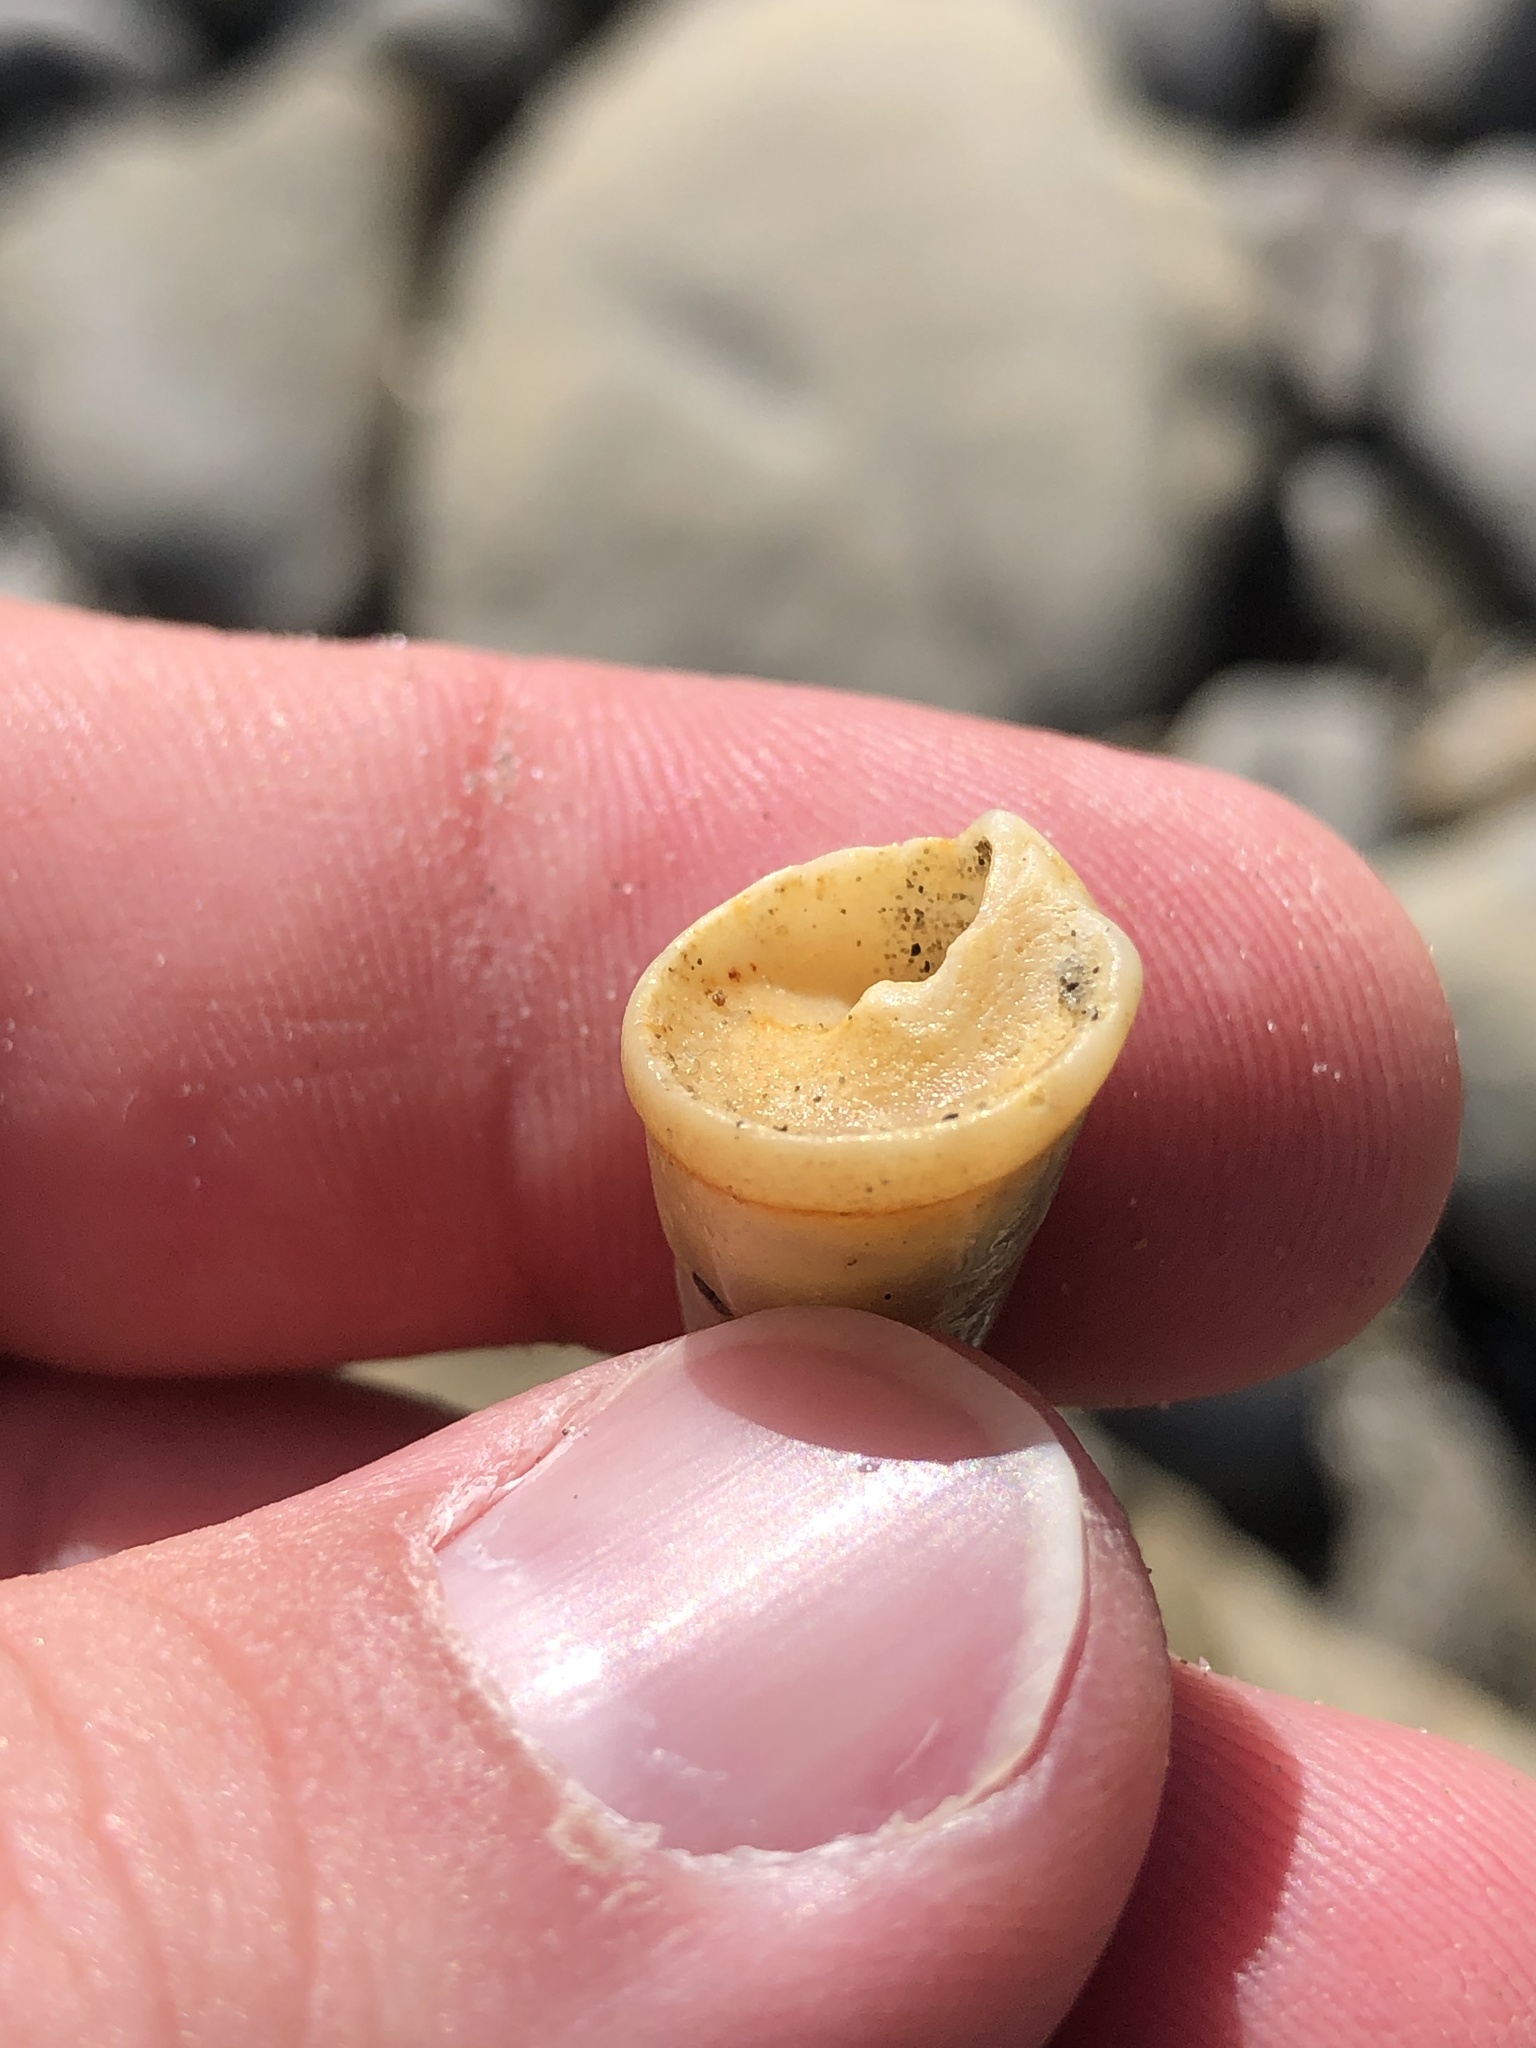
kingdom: Animalia
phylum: Mollusca
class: Gastropoda
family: Turritellidae
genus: Maoricolpus
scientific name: Maoricolpus roseus
